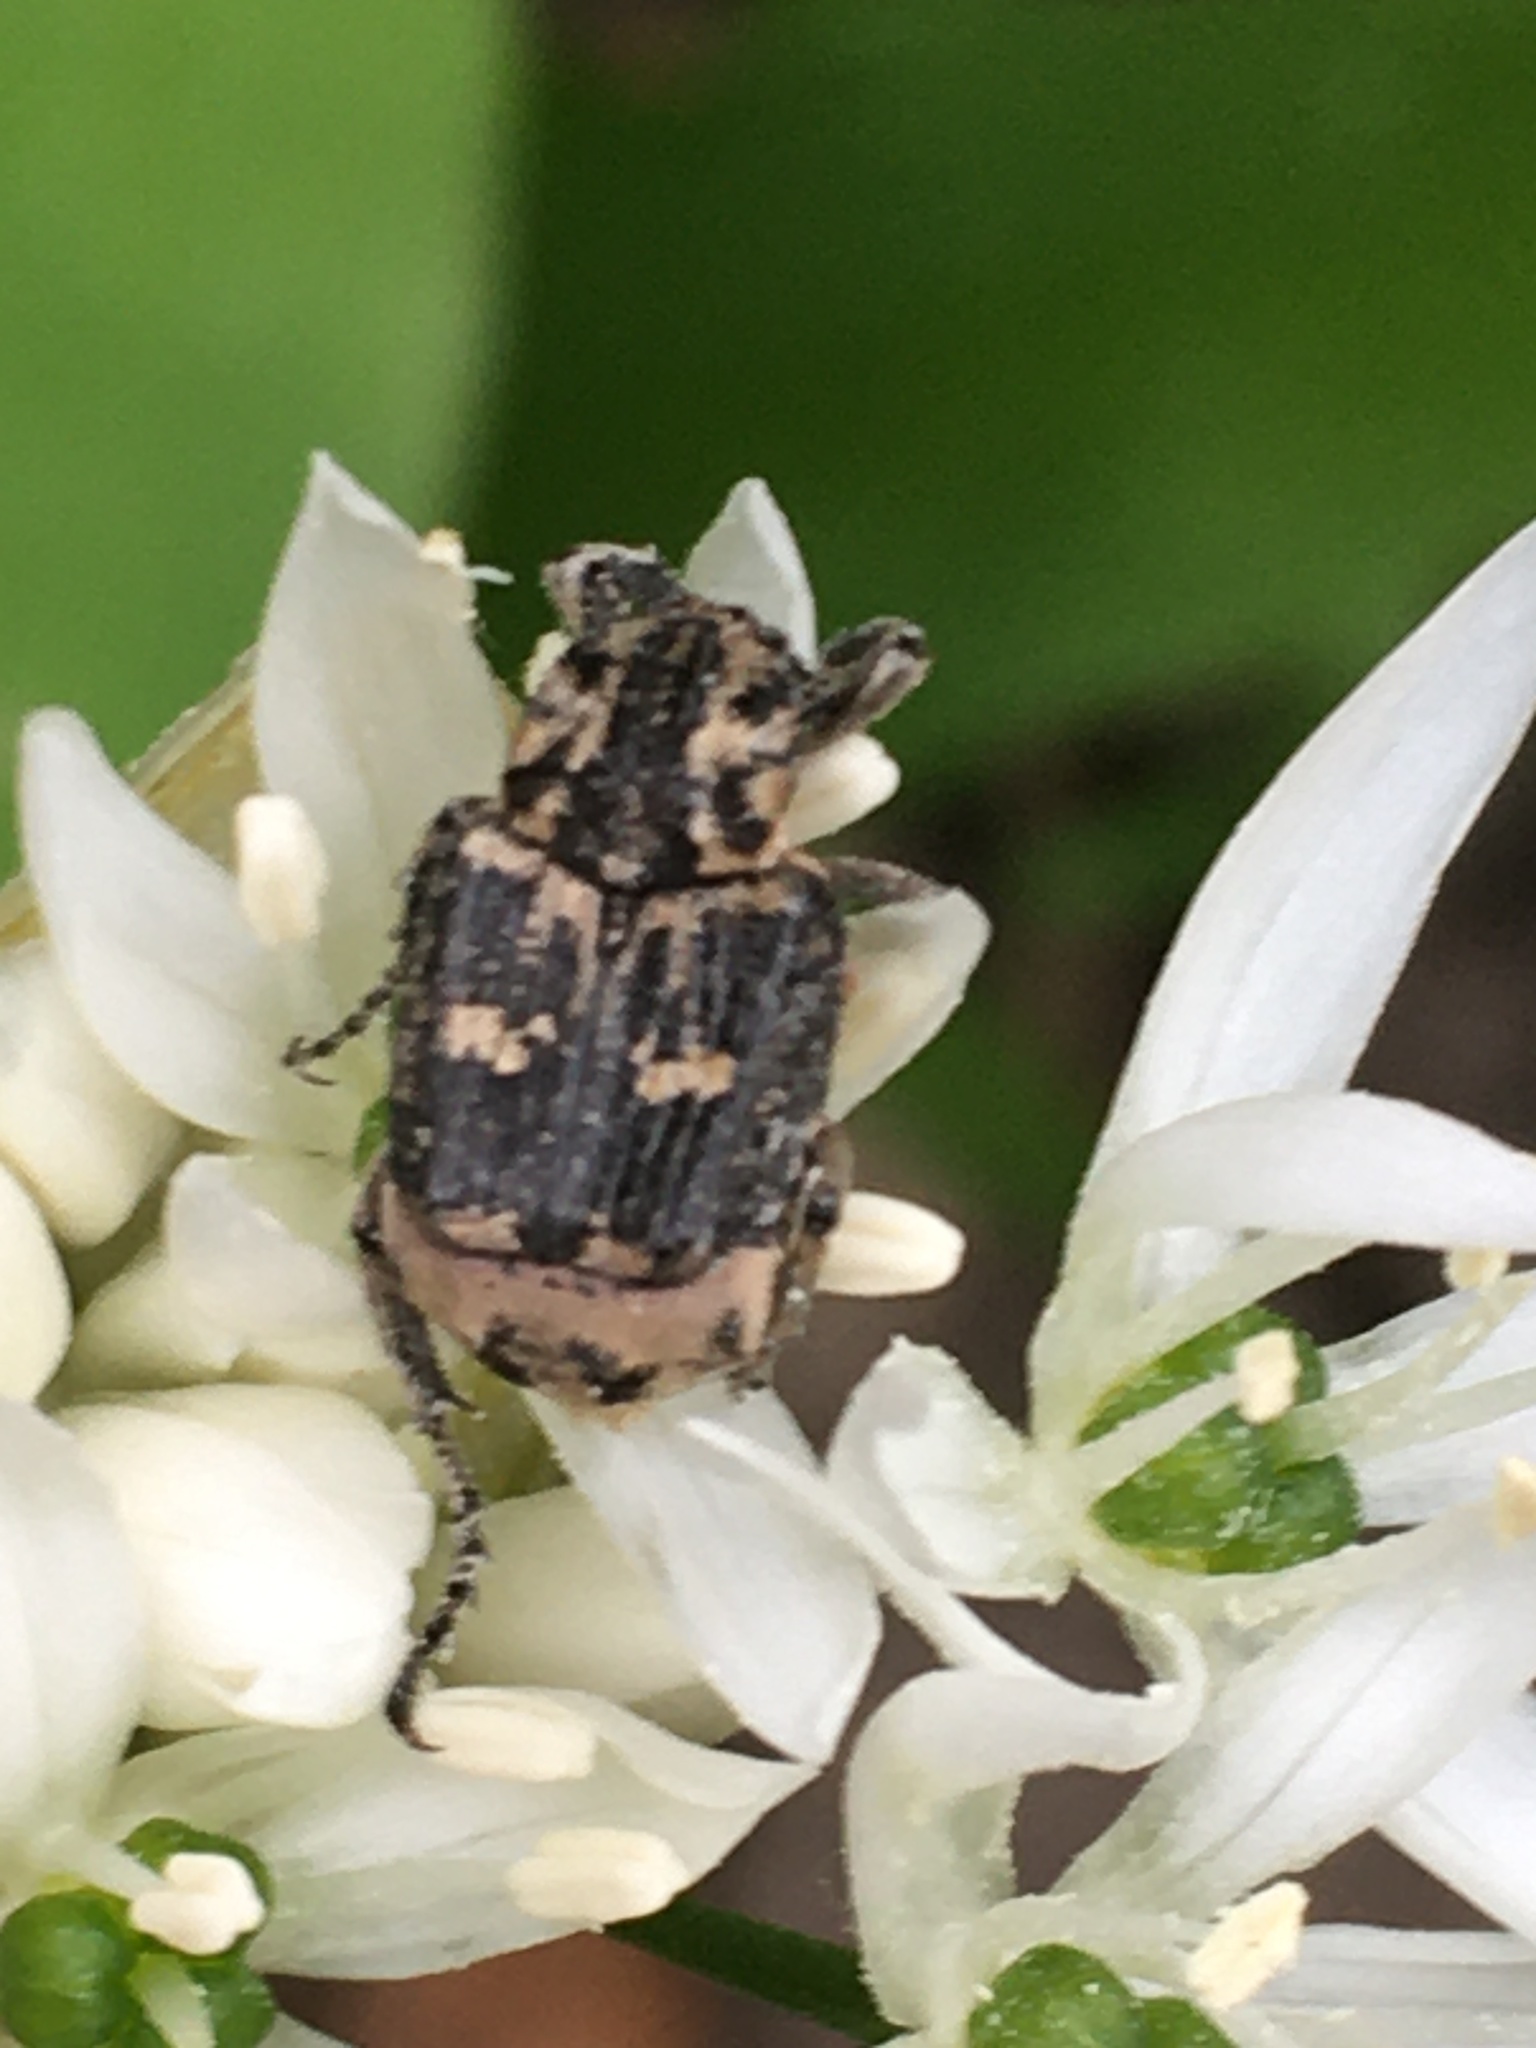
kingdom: Animalia
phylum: Arthropoda
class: Insecta
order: Coleoptera
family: Scarabaeidae
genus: Valgus
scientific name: Valgus hemipterus
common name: Bug flower chafer
